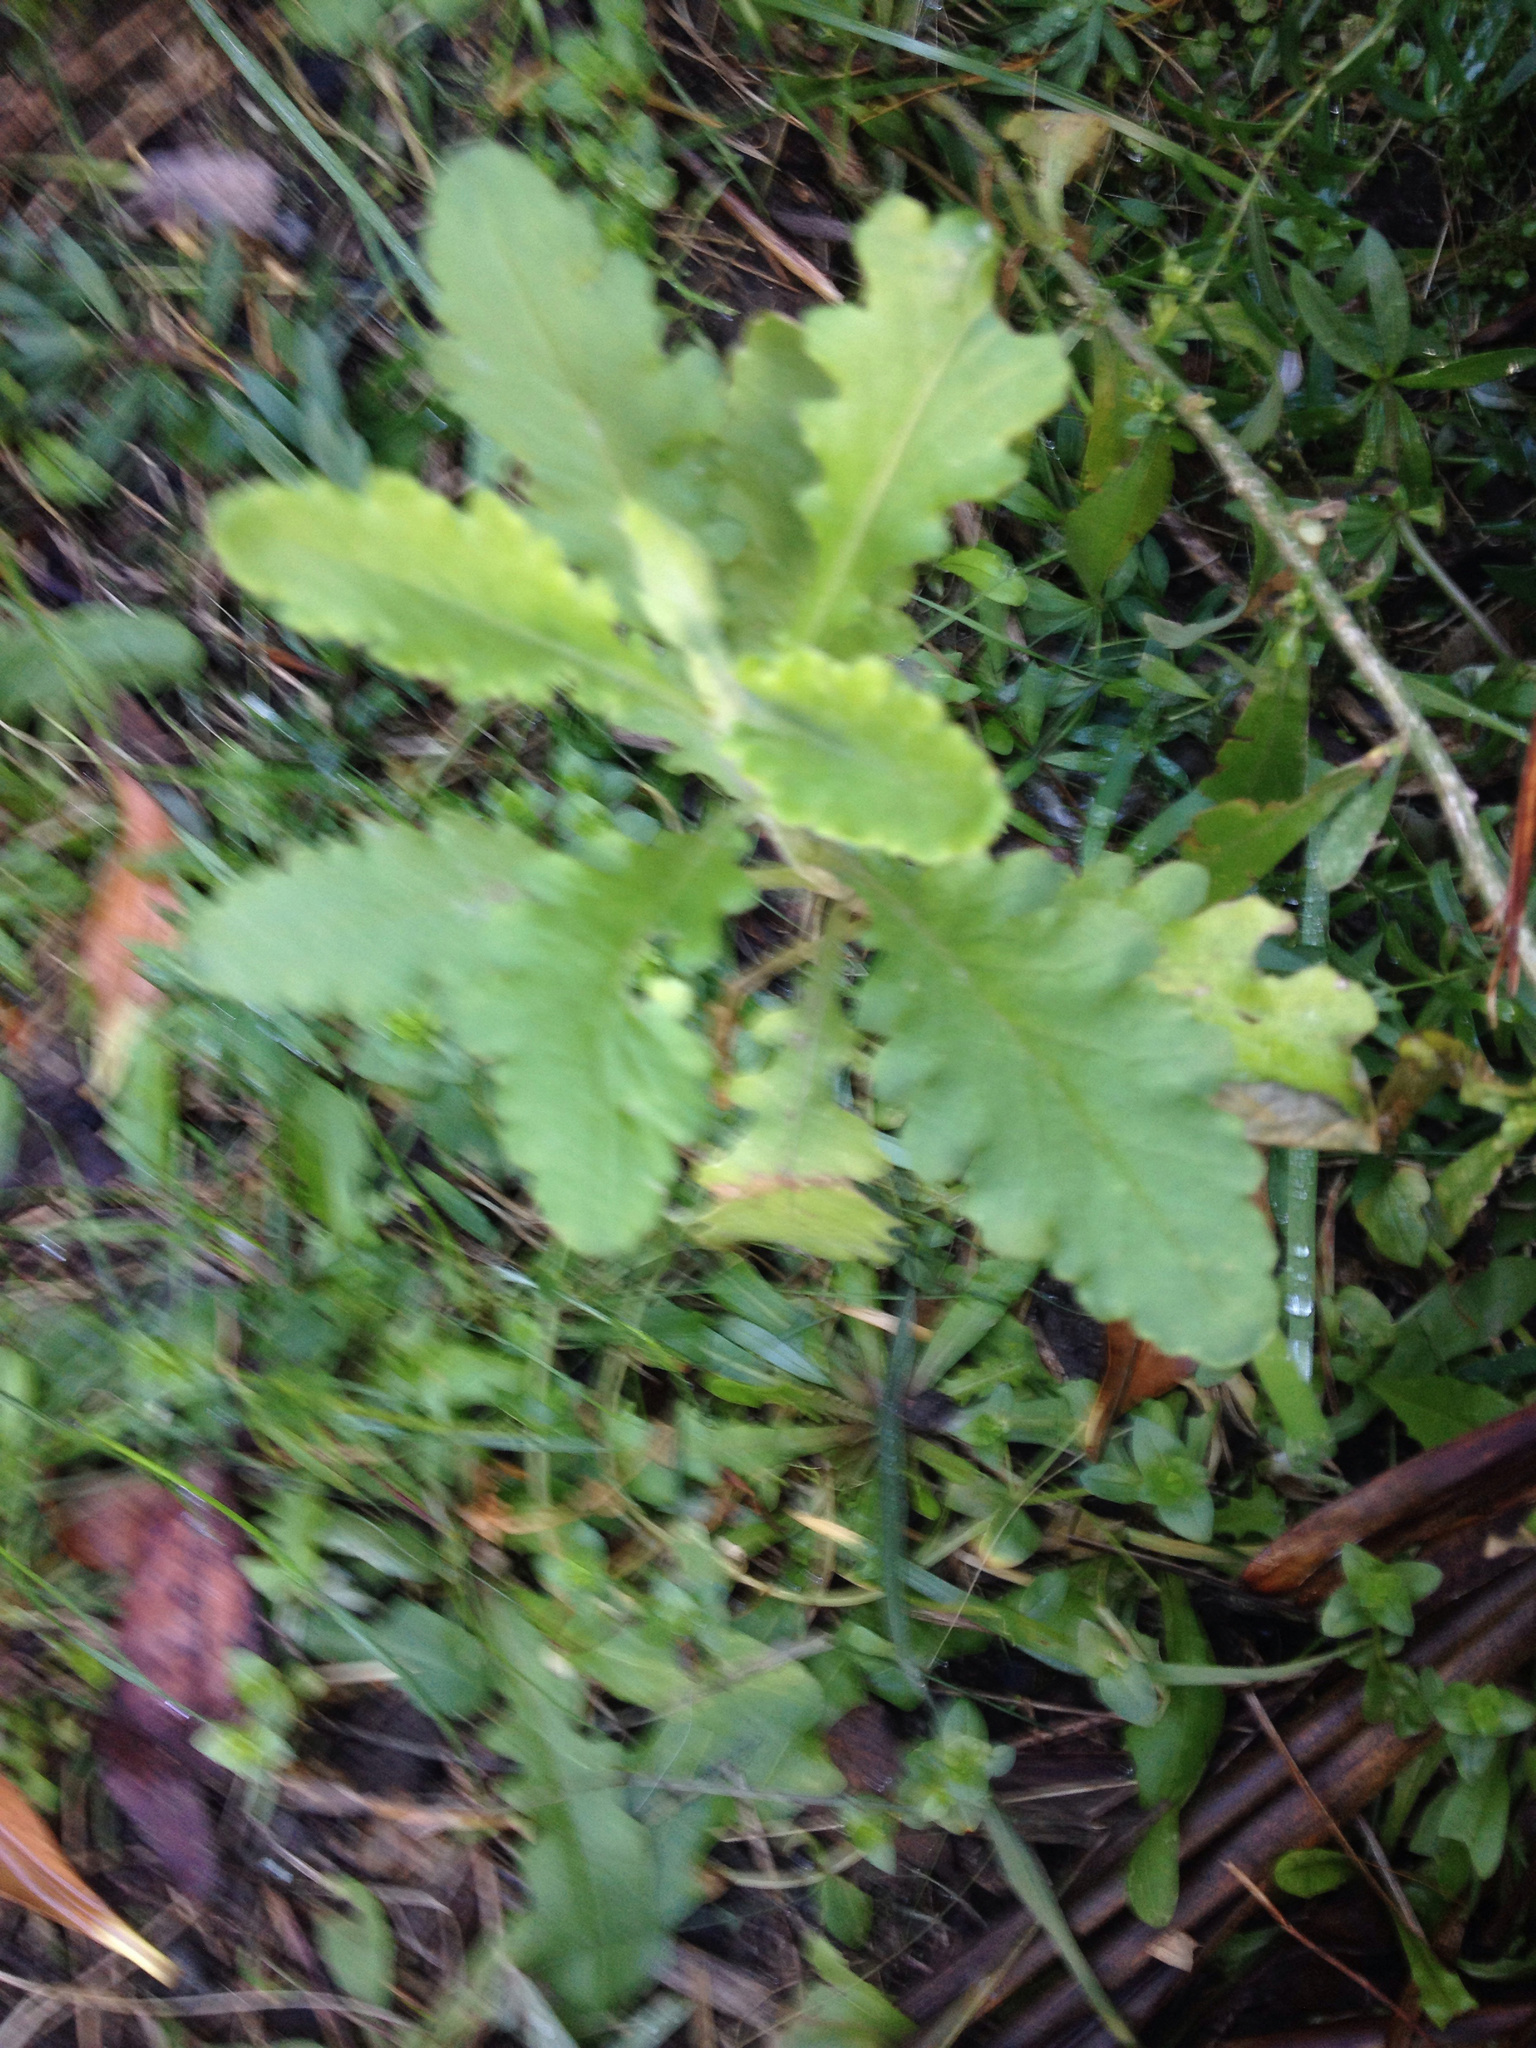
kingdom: Plantae
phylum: Tracheophyta
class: Magnoliopsida
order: Asterales
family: Asteraceae
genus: Senecio
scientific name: Senecio glomeratus
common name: Cutleaf burnweed
